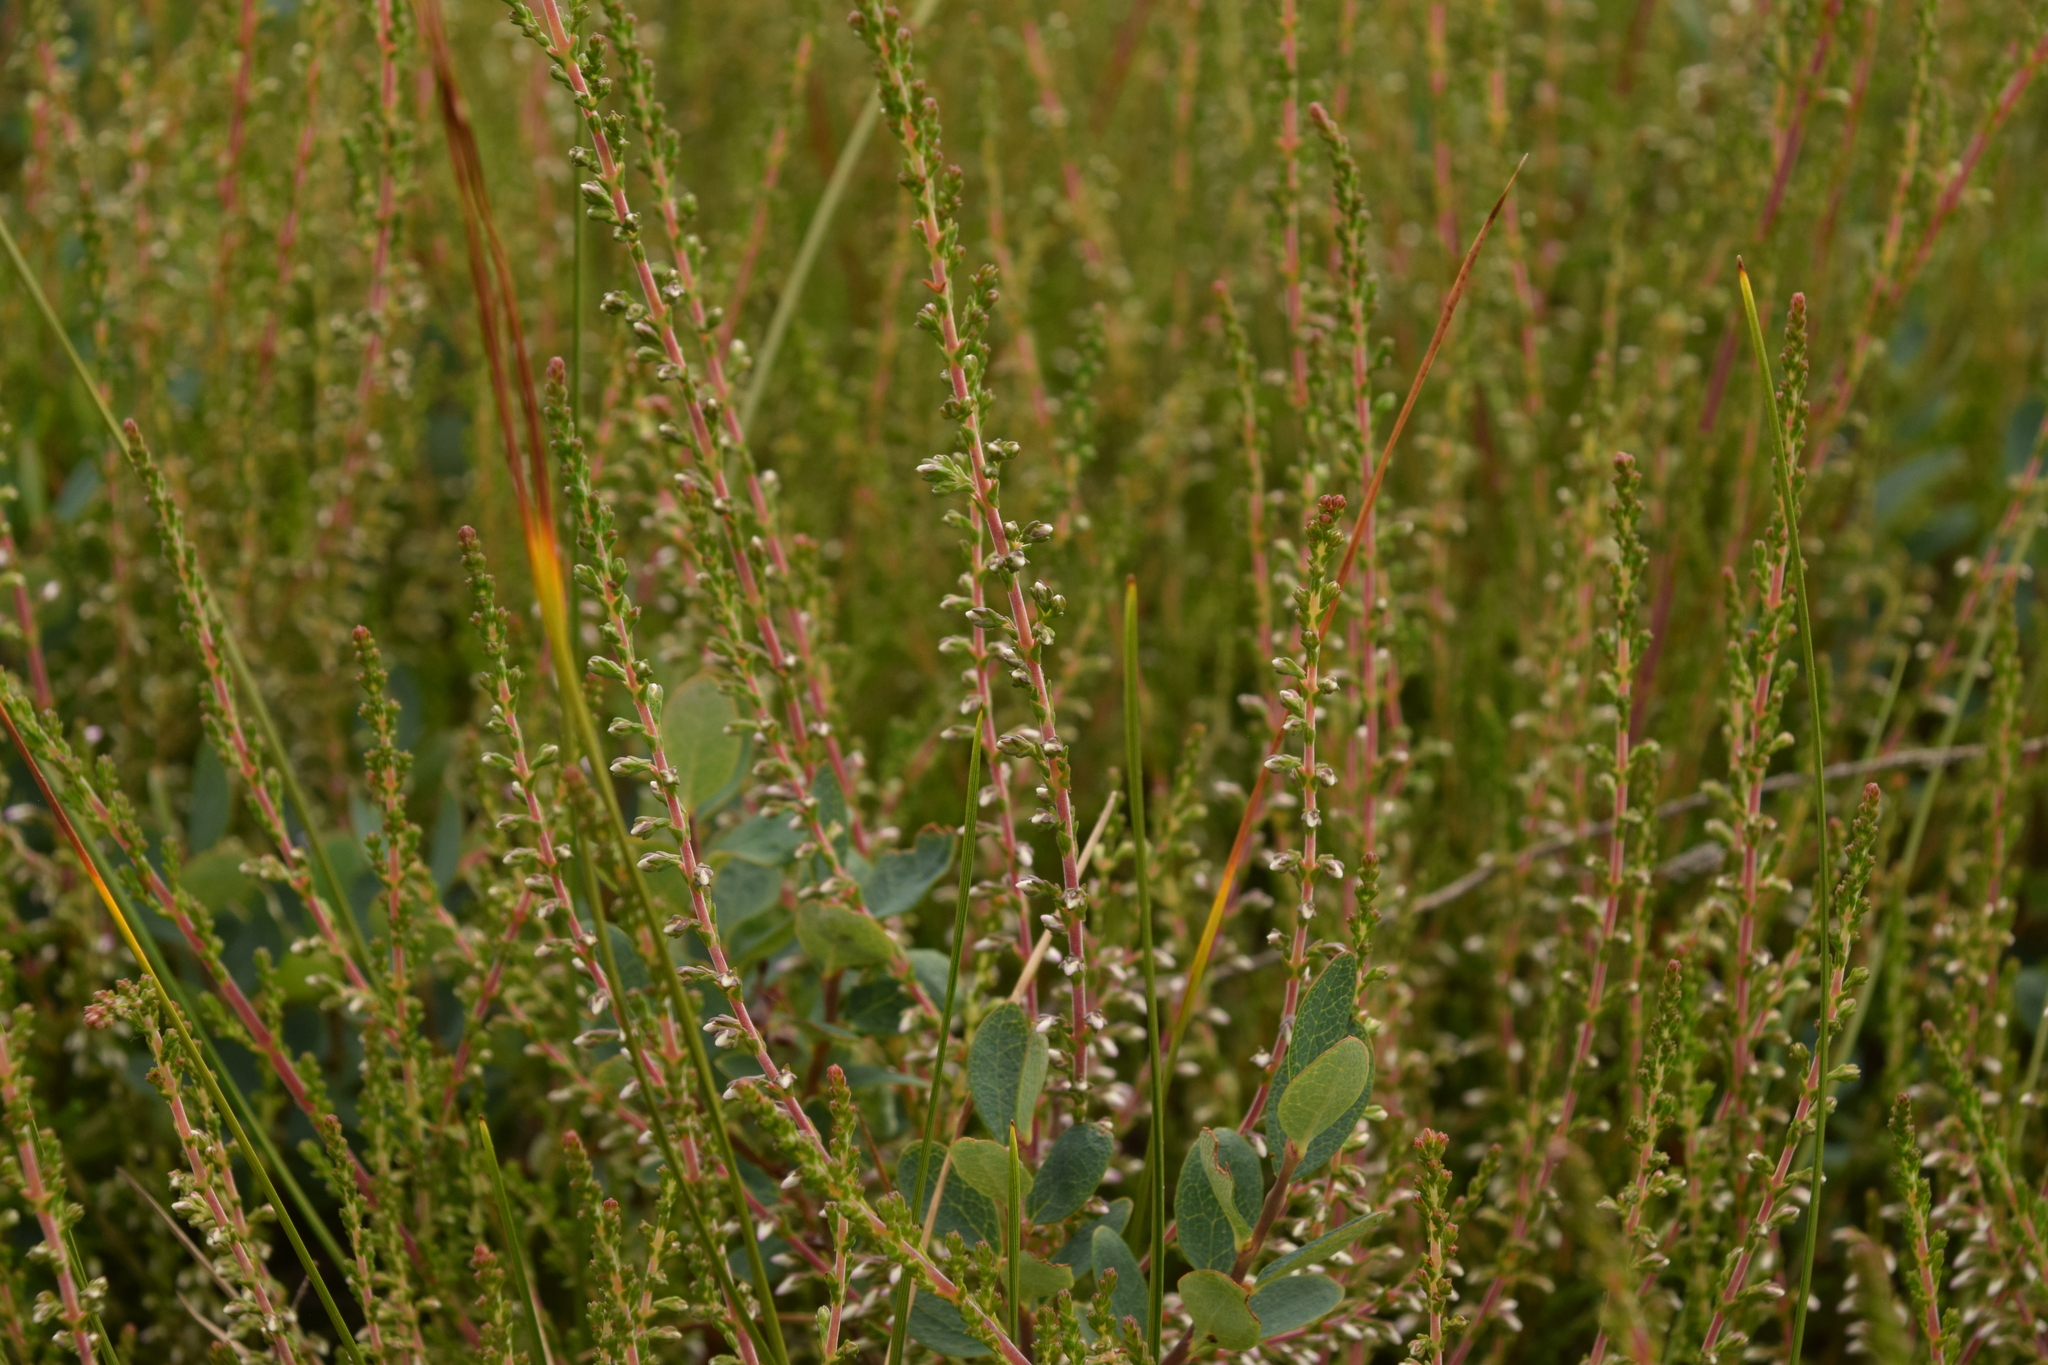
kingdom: Plantae
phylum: Tracheophyta
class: Magnoliopsida
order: Ericales
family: Ericaceae
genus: Calluna
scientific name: Calluna vulgaris
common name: Heather
